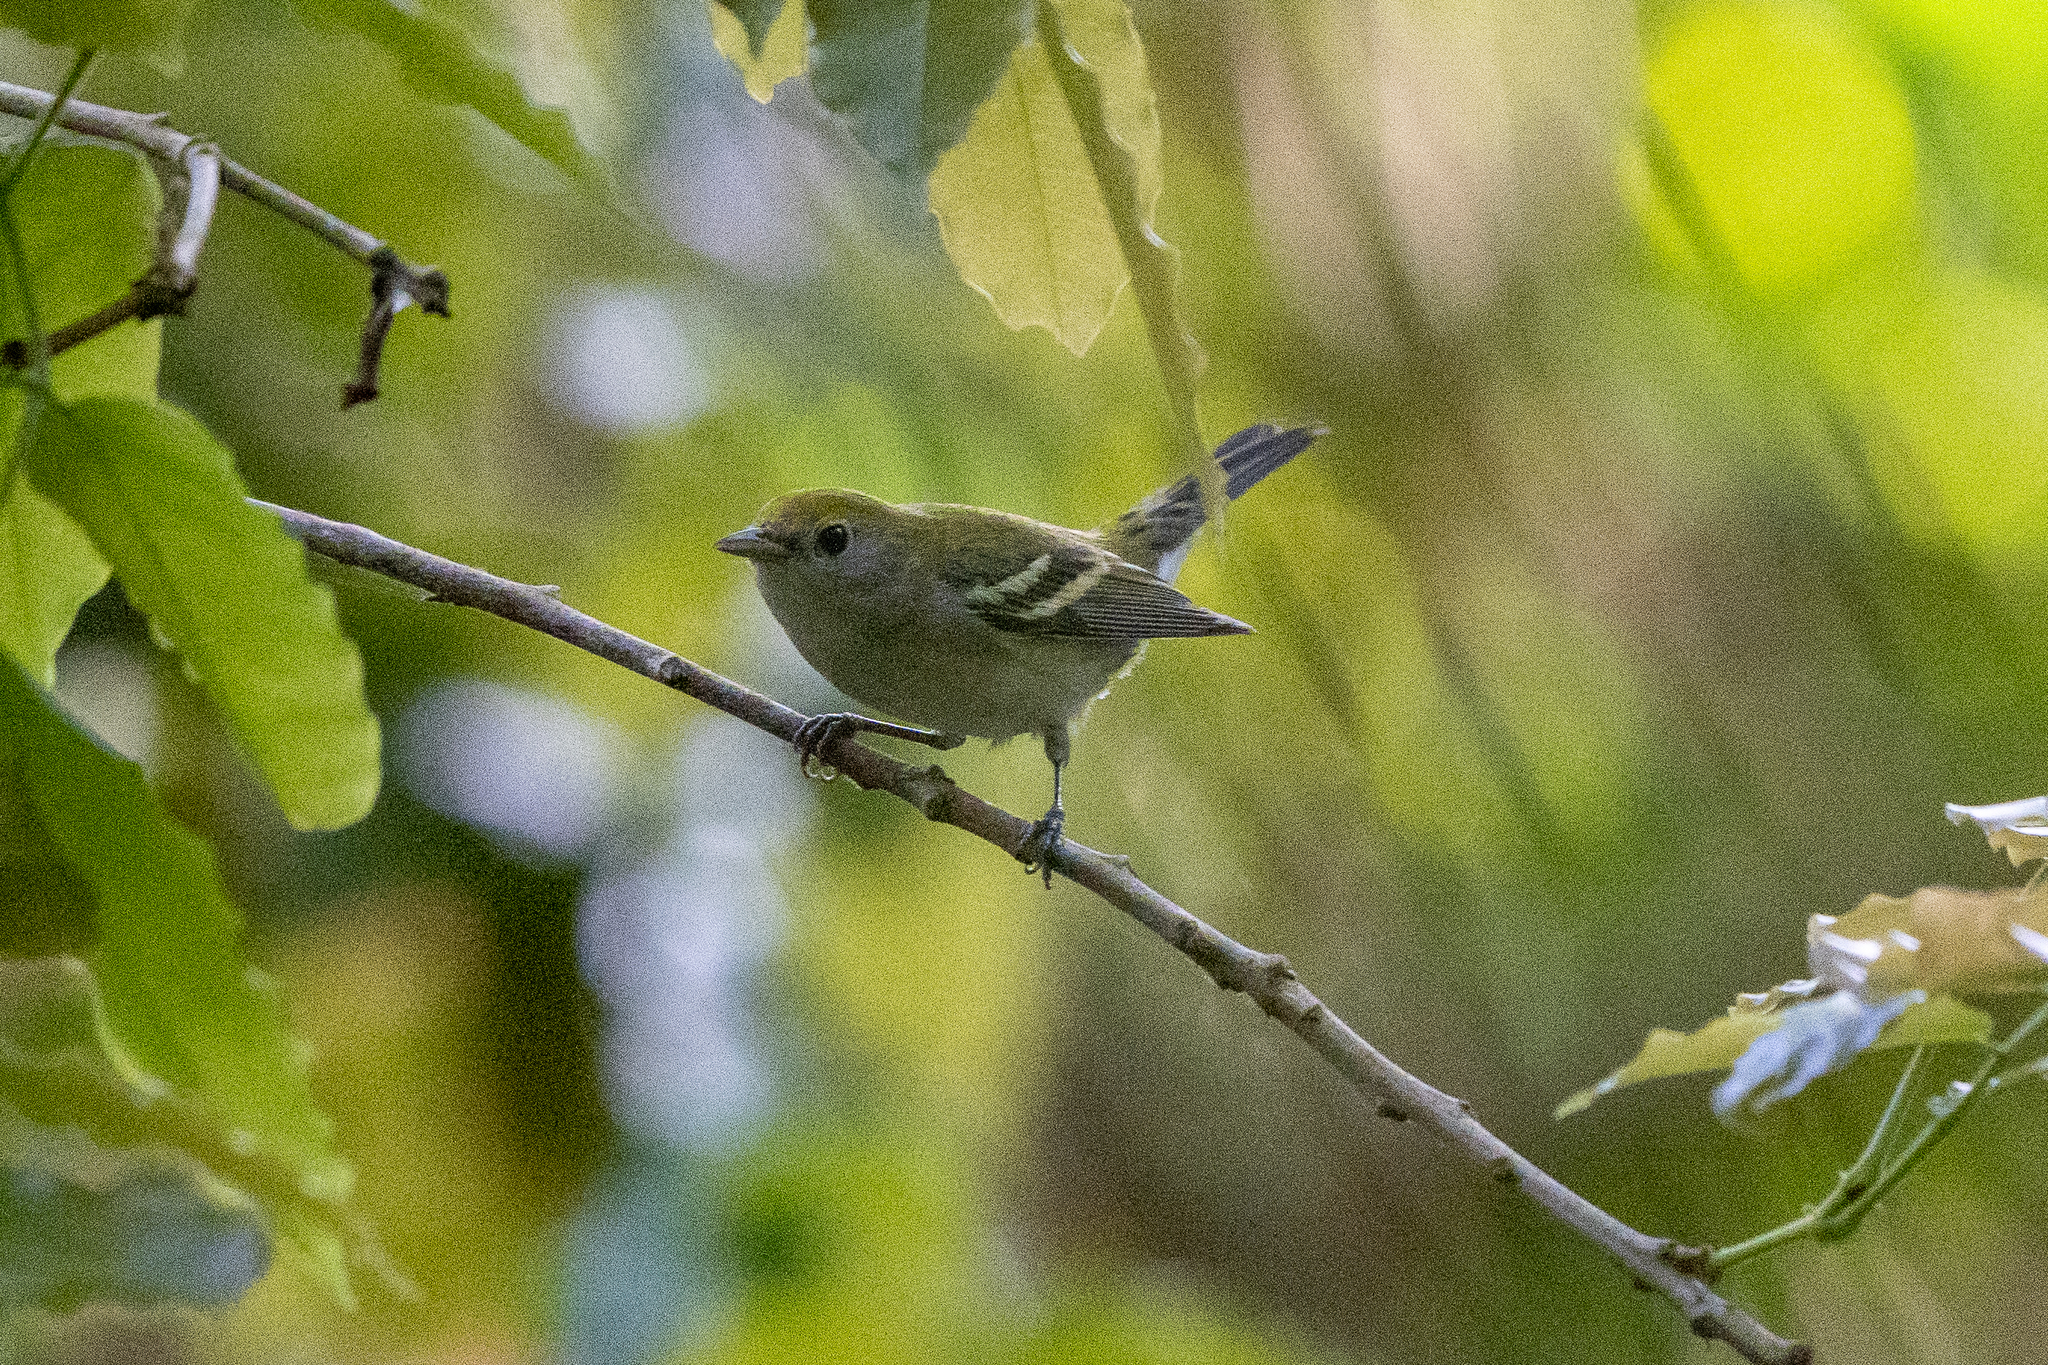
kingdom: Animalia
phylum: Chordata
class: Aves
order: Passeriformes
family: Parulidae
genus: Setophaga
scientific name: Setophaga pensylvanica
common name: Chestnut-sided warbler
